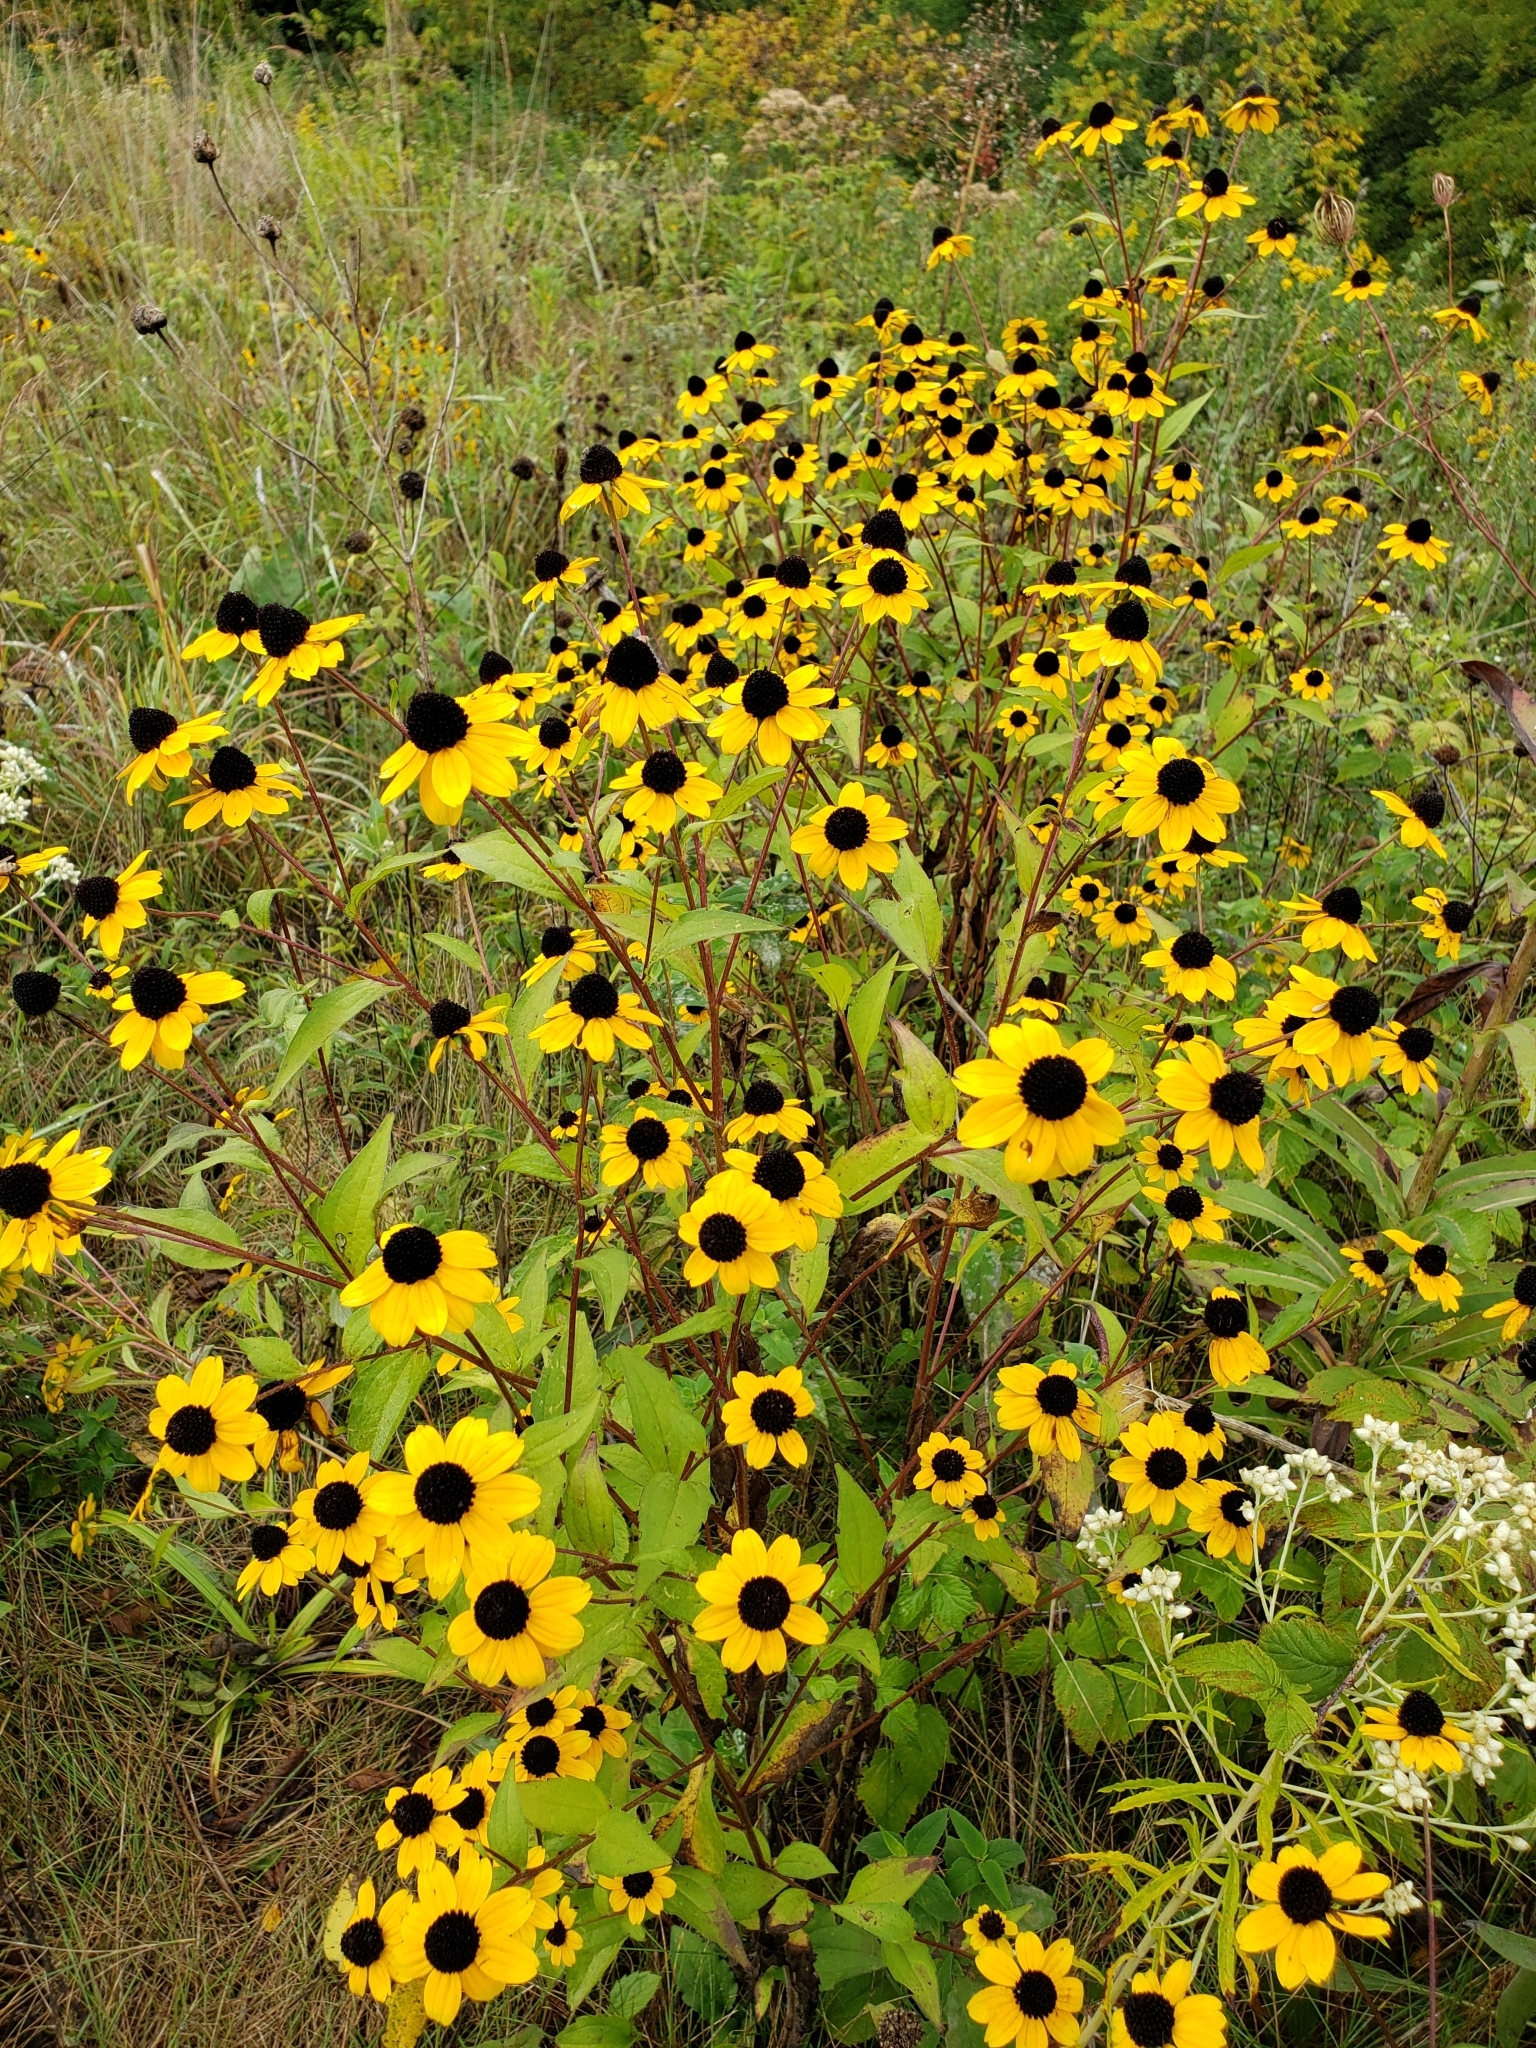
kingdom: Plantae
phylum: Tracheophyta
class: Magnoliopsida
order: Asterales
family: Asteraceae
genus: Rudbeckia
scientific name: Rudbeckia triloba
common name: Thin-leaved coneflower
